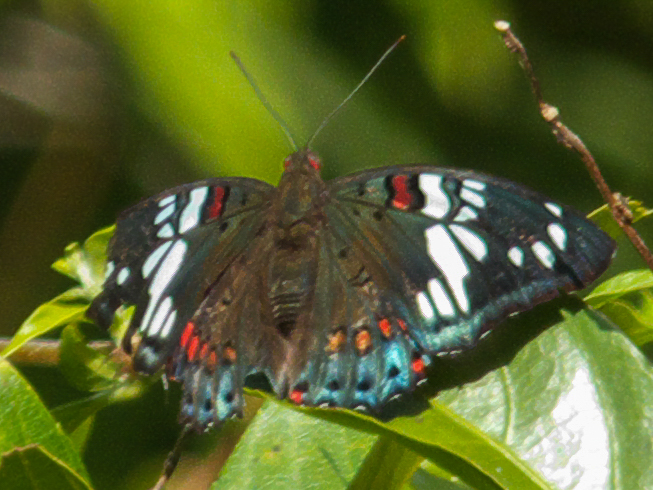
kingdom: Animalia
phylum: Arthropoda
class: Insecta
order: Lepidoptera
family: Nymphalidae
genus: Euthalia
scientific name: Euthalia lubentina
